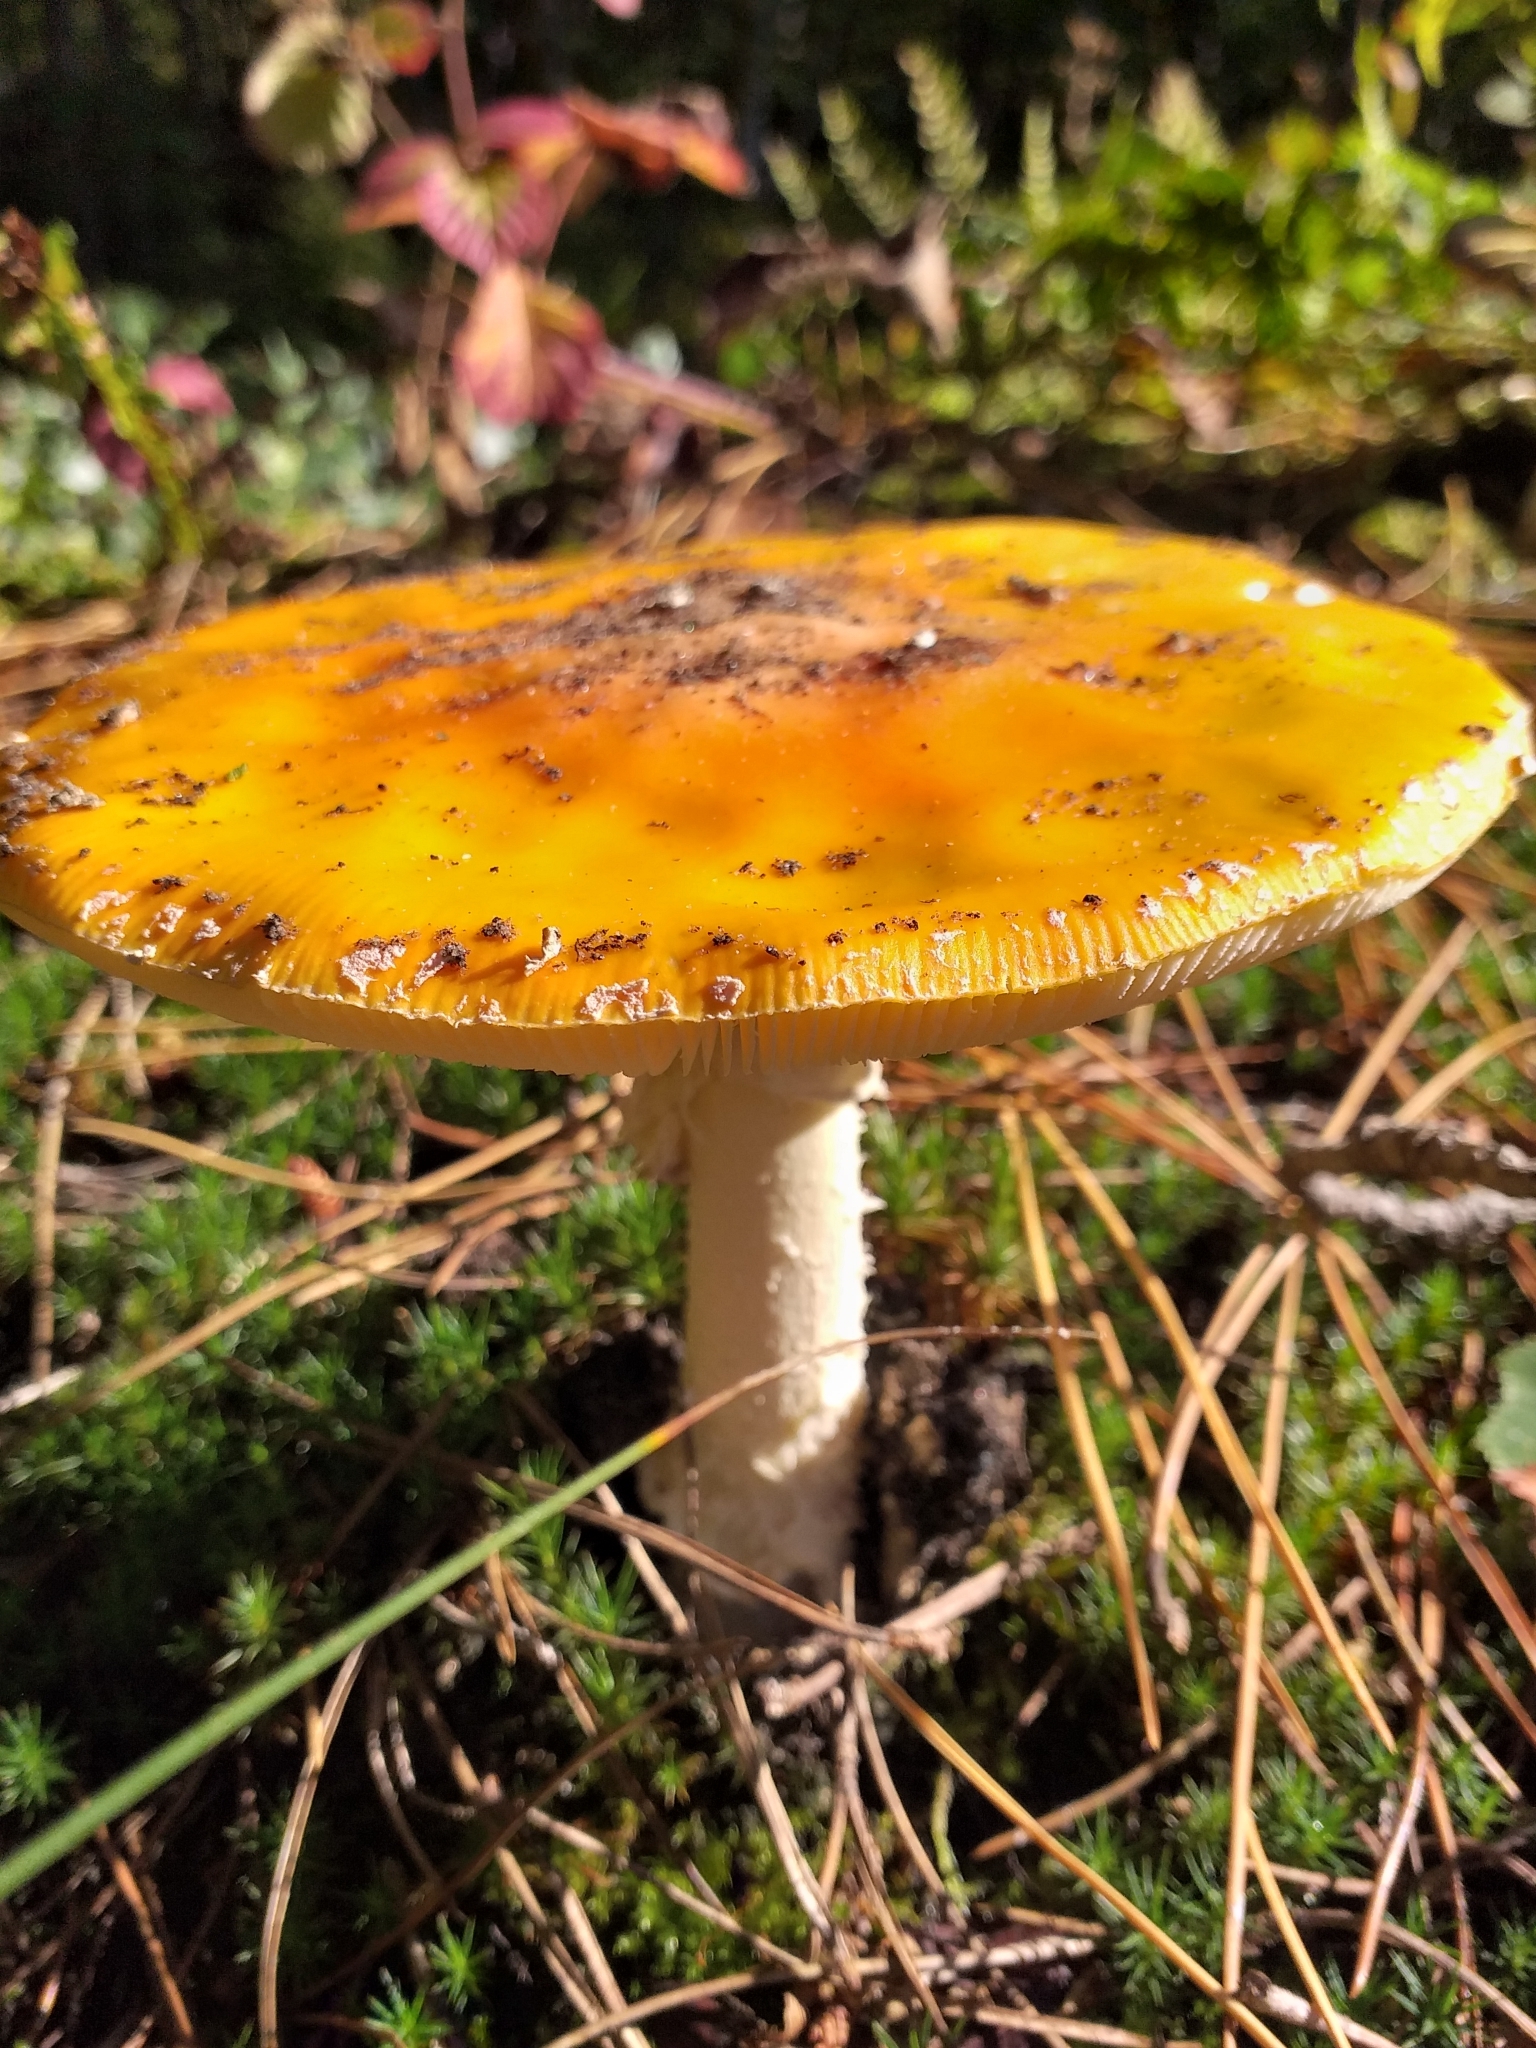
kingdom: Fungi
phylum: Basidiomycota
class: Agaricomycetes
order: Agaricales
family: Amanitaceae
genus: Amanita
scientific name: Amanita muscaria
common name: Fly agaric
